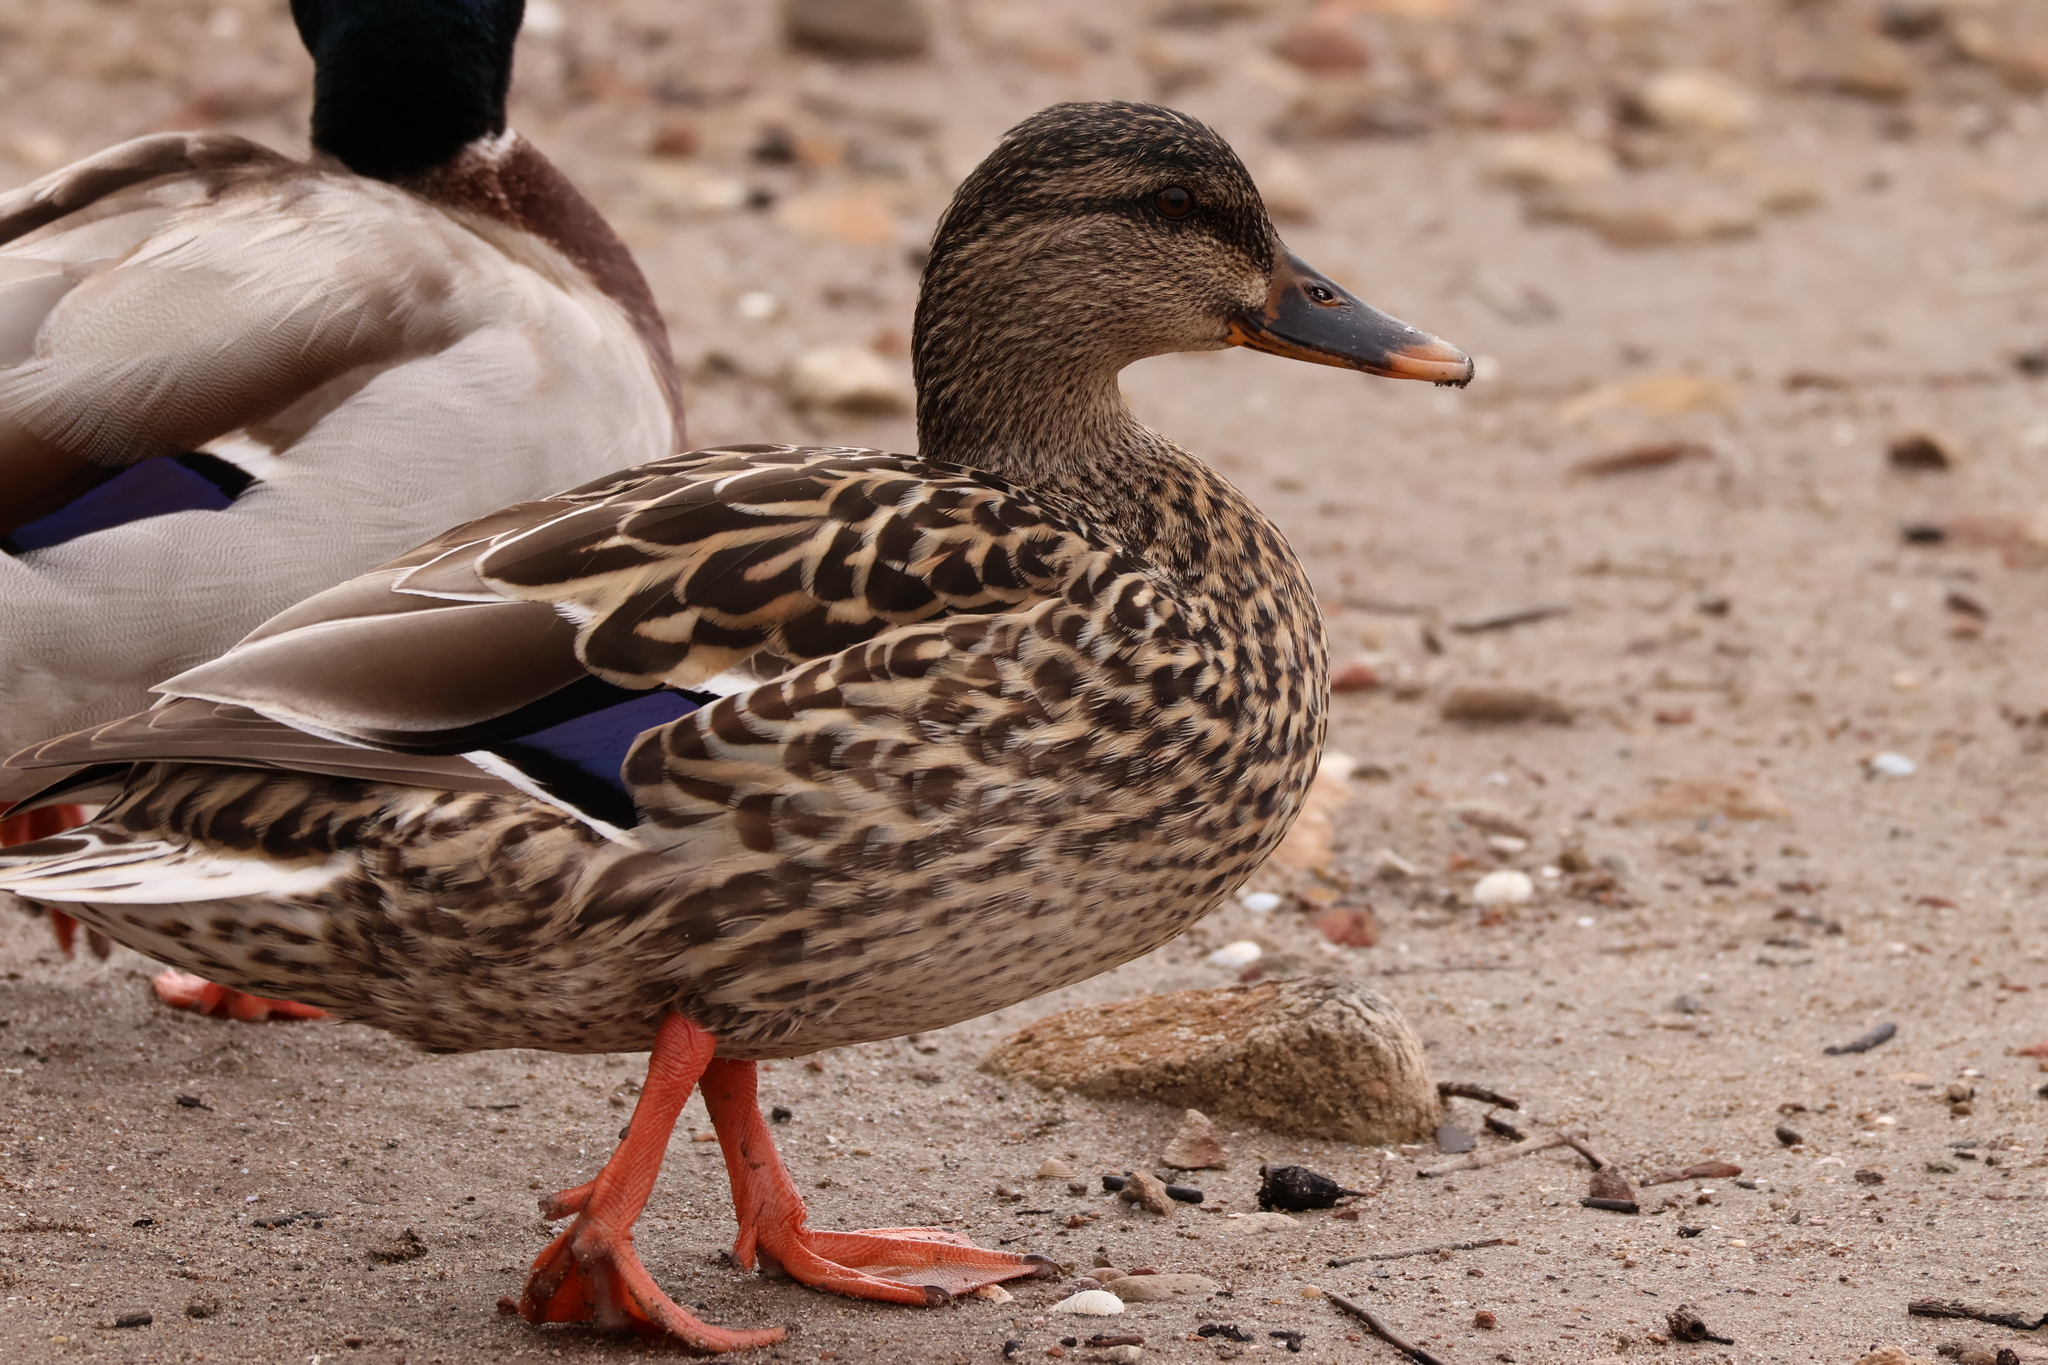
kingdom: Animalia
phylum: Chordata
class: Aves
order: Anseriformes
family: Anatidae
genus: Anas
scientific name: Anas platyrhynchos
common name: Mallard
